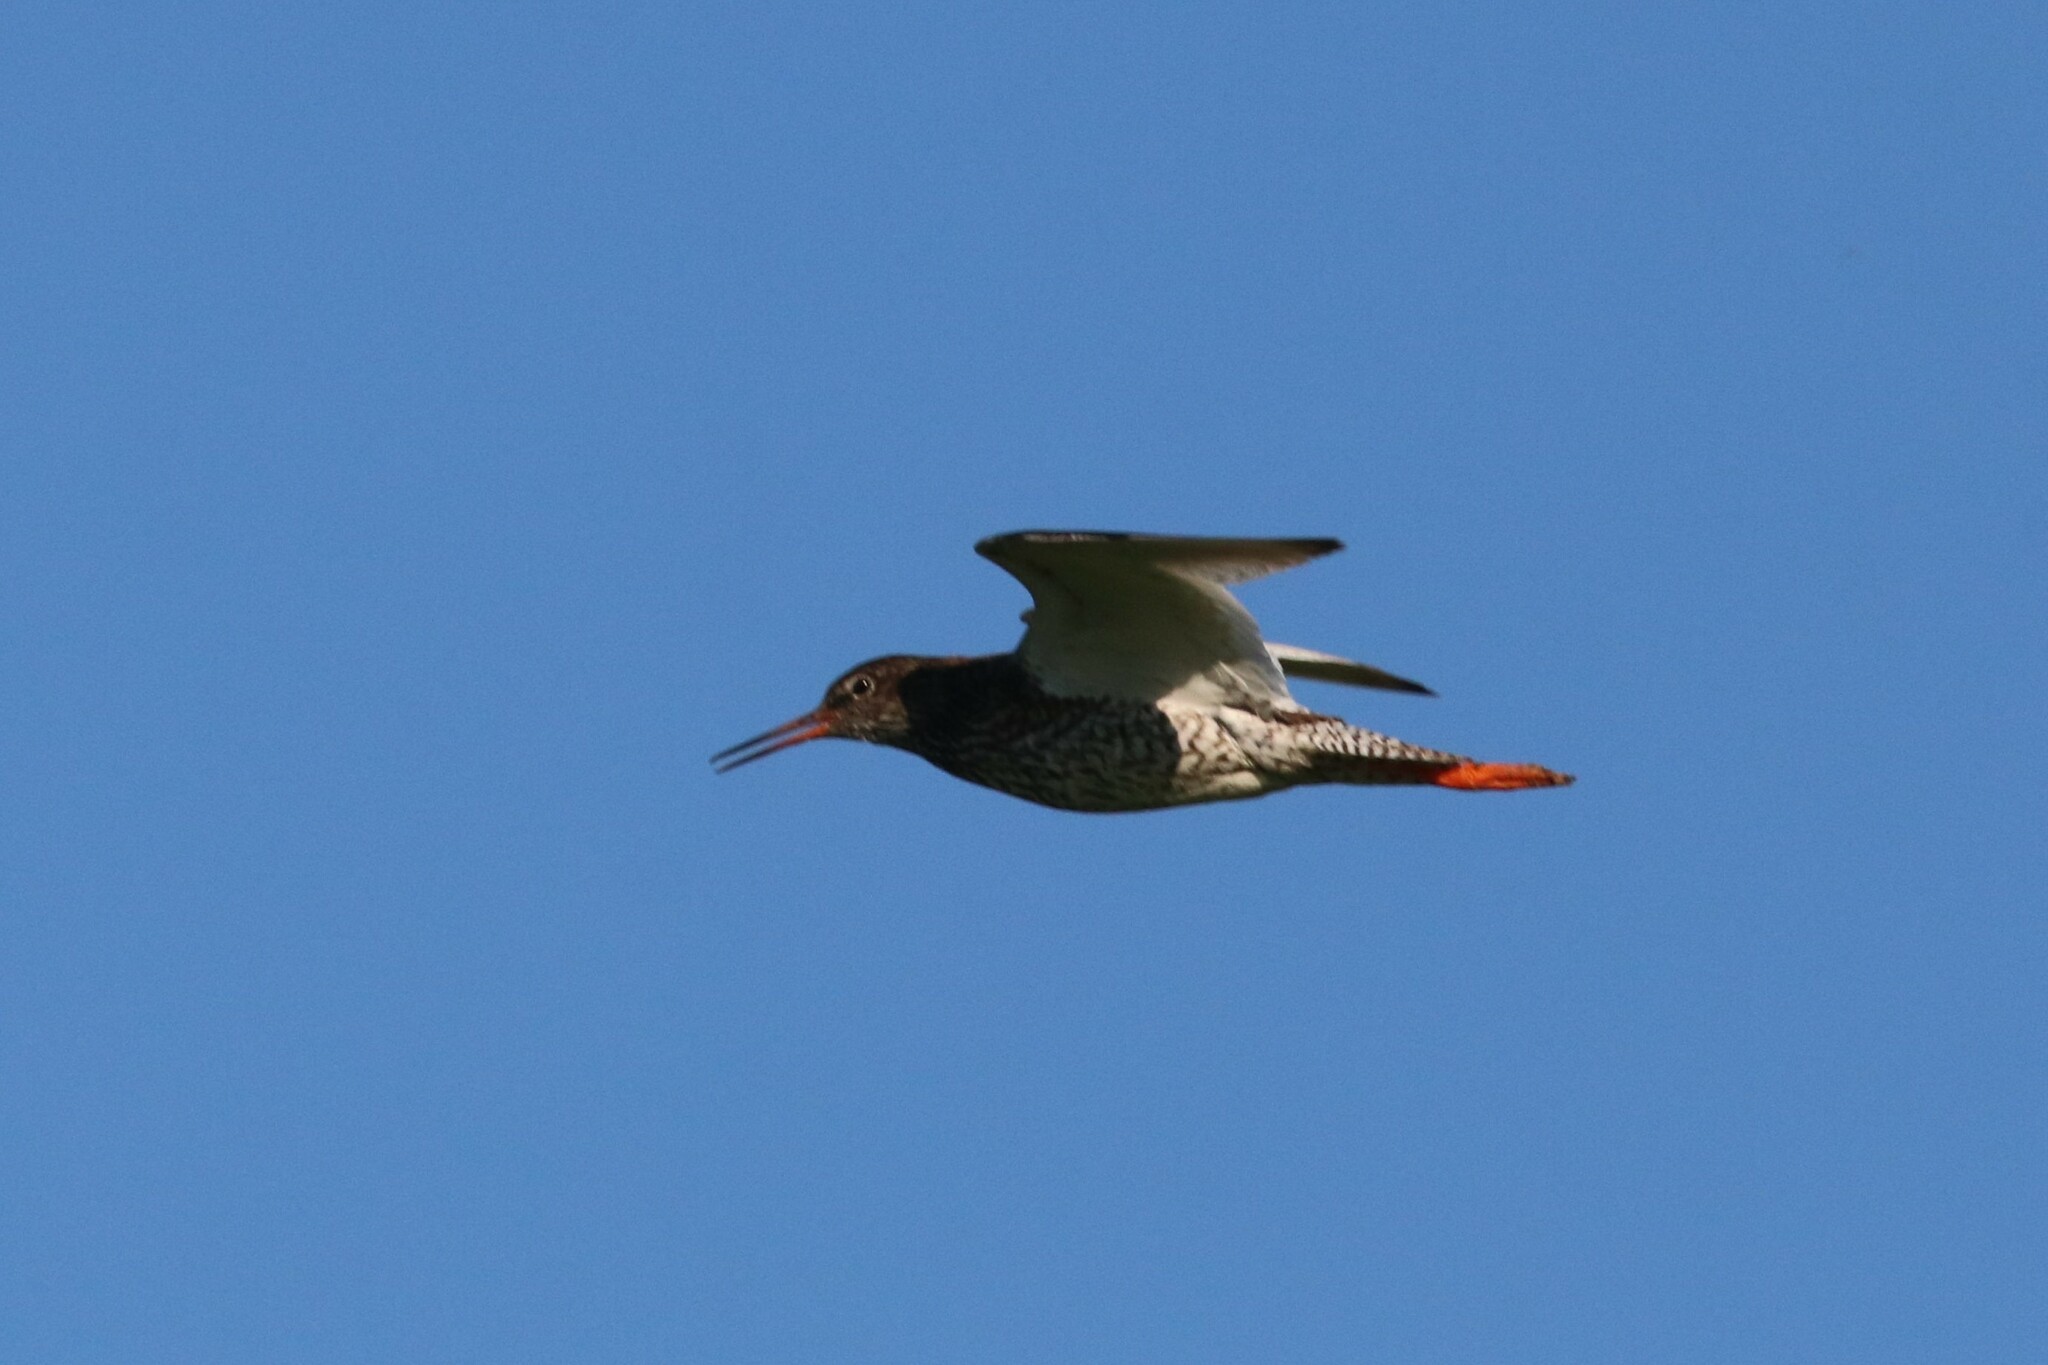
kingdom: Animalia
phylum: Chordata
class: Aves
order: Charadriiformes
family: Scolopacidae
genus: Tringa
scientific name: Tringa totanus
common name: Common redshank
